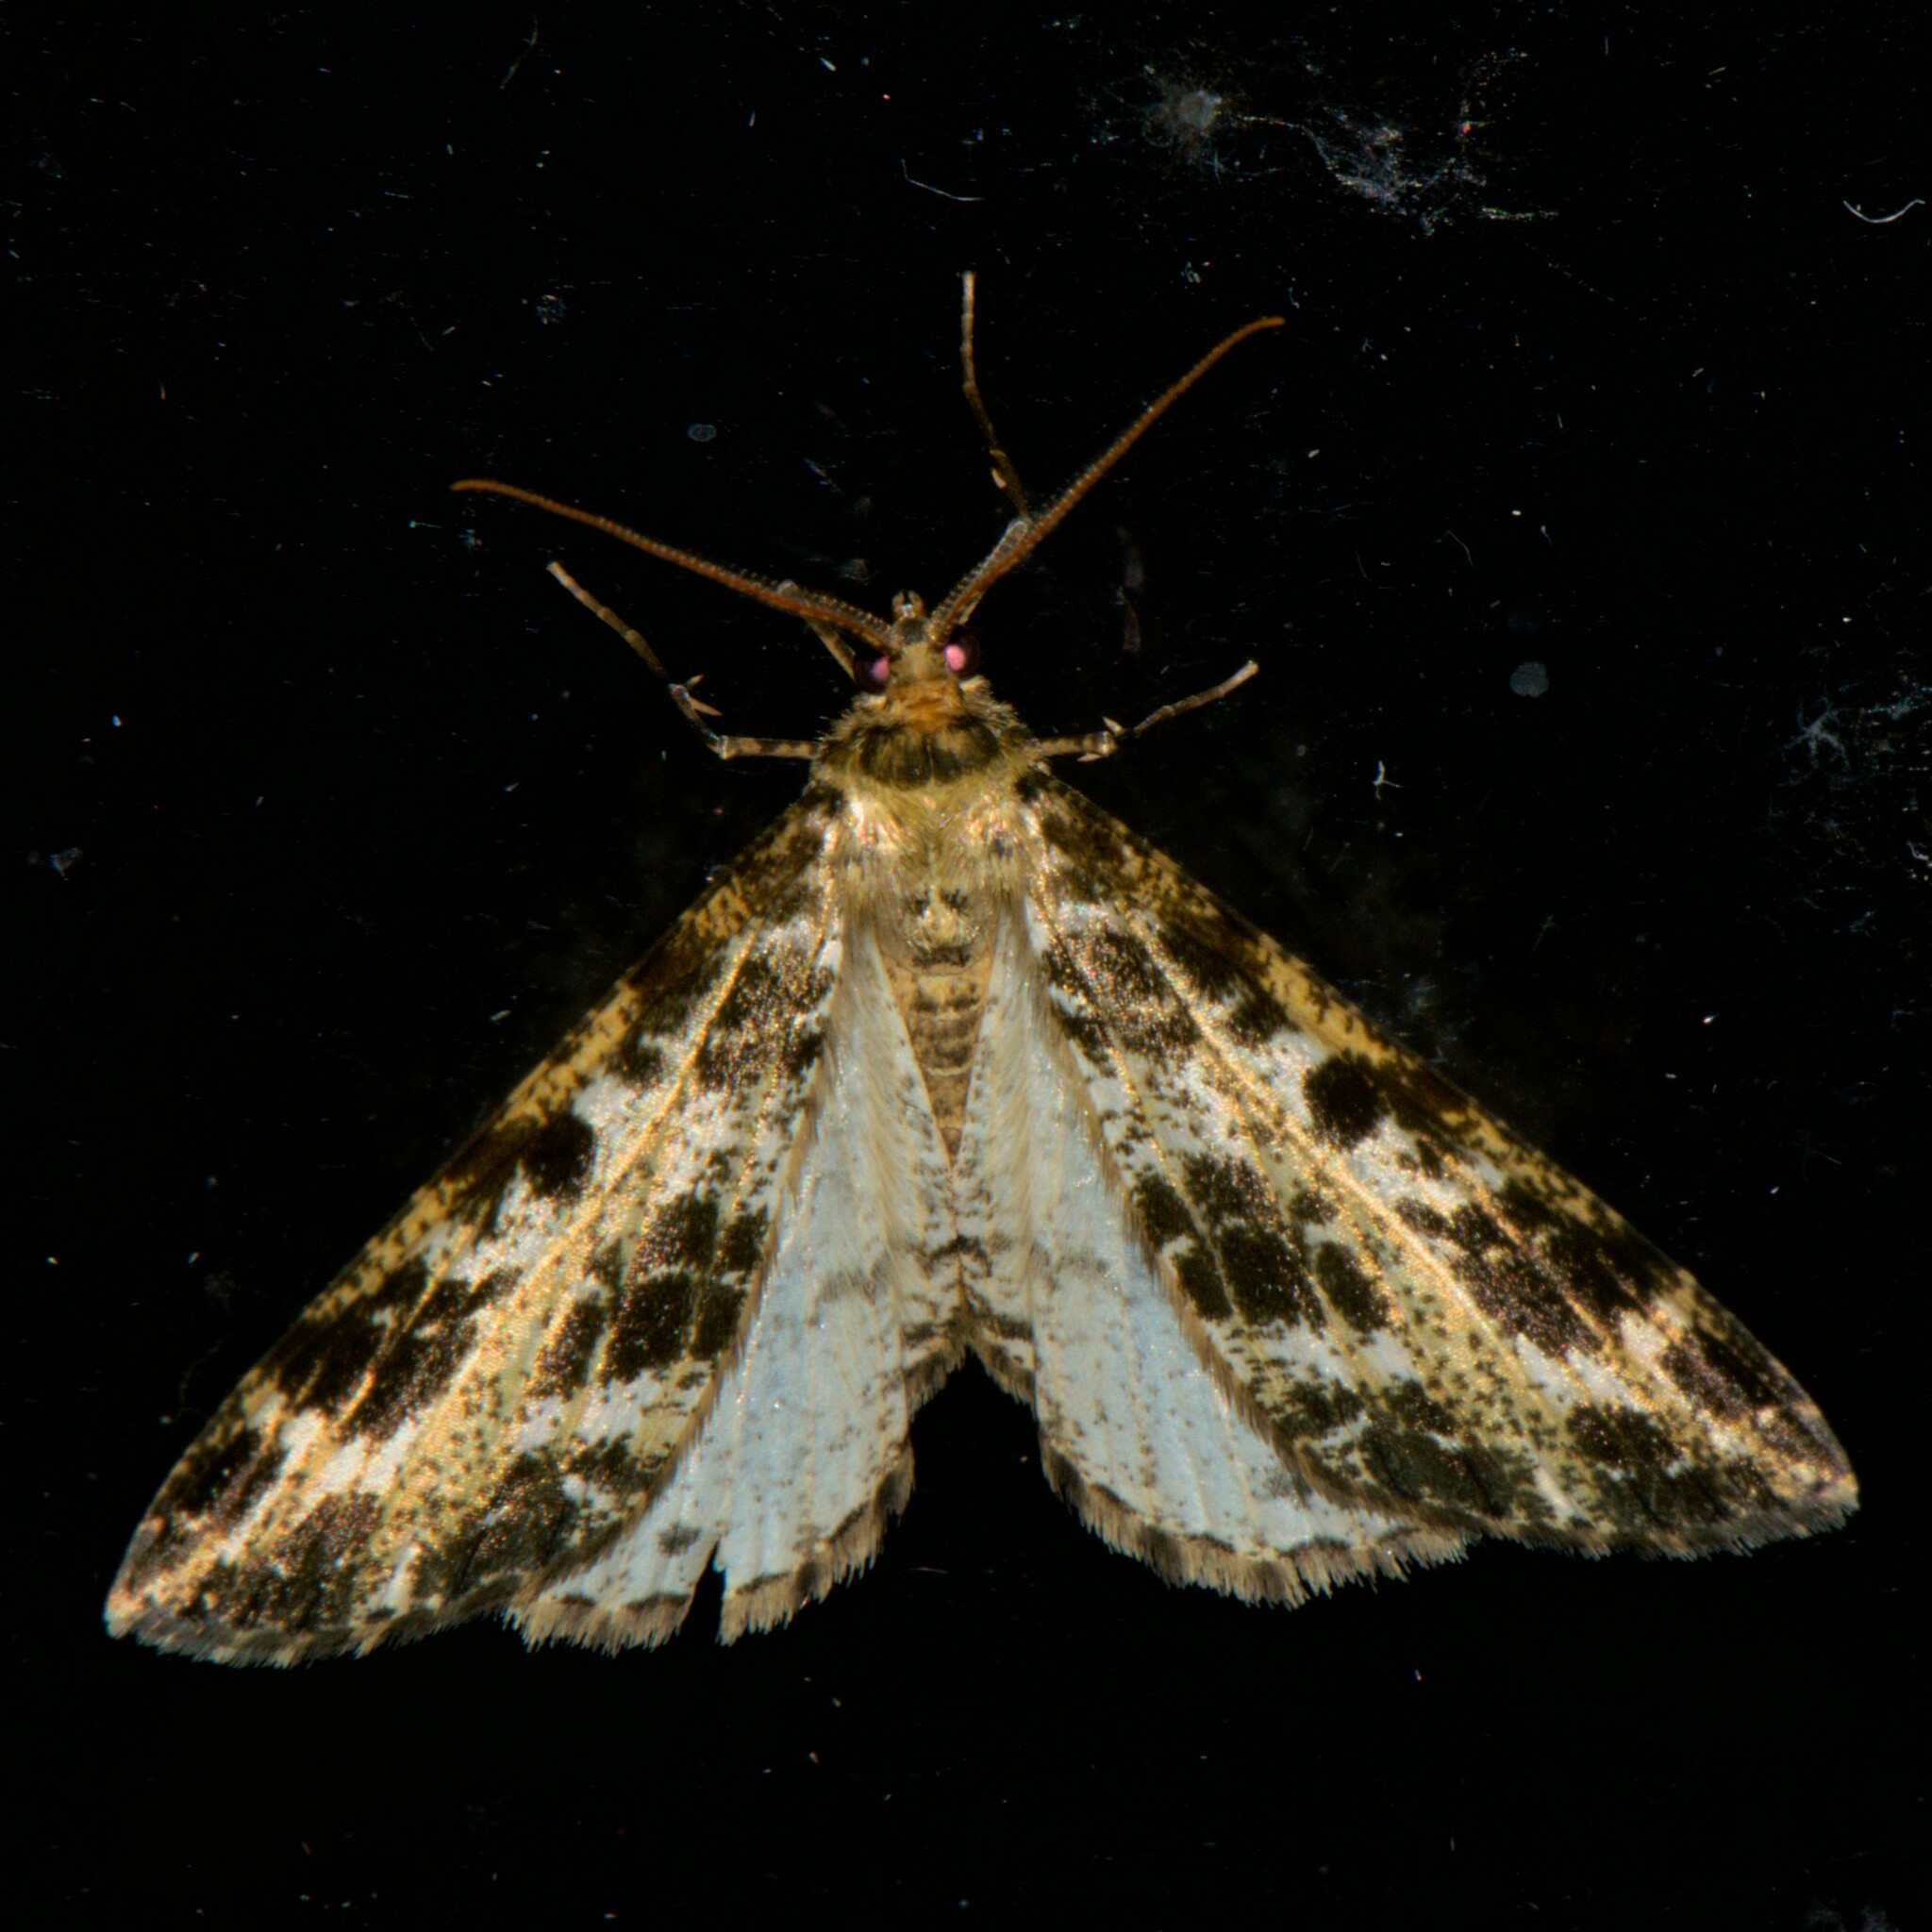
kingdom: Animalia
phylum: Arthropoda
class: Insecta
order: Lepidoptera
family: Geometridae
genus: Arichanna
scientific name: Arichanna interplagata
